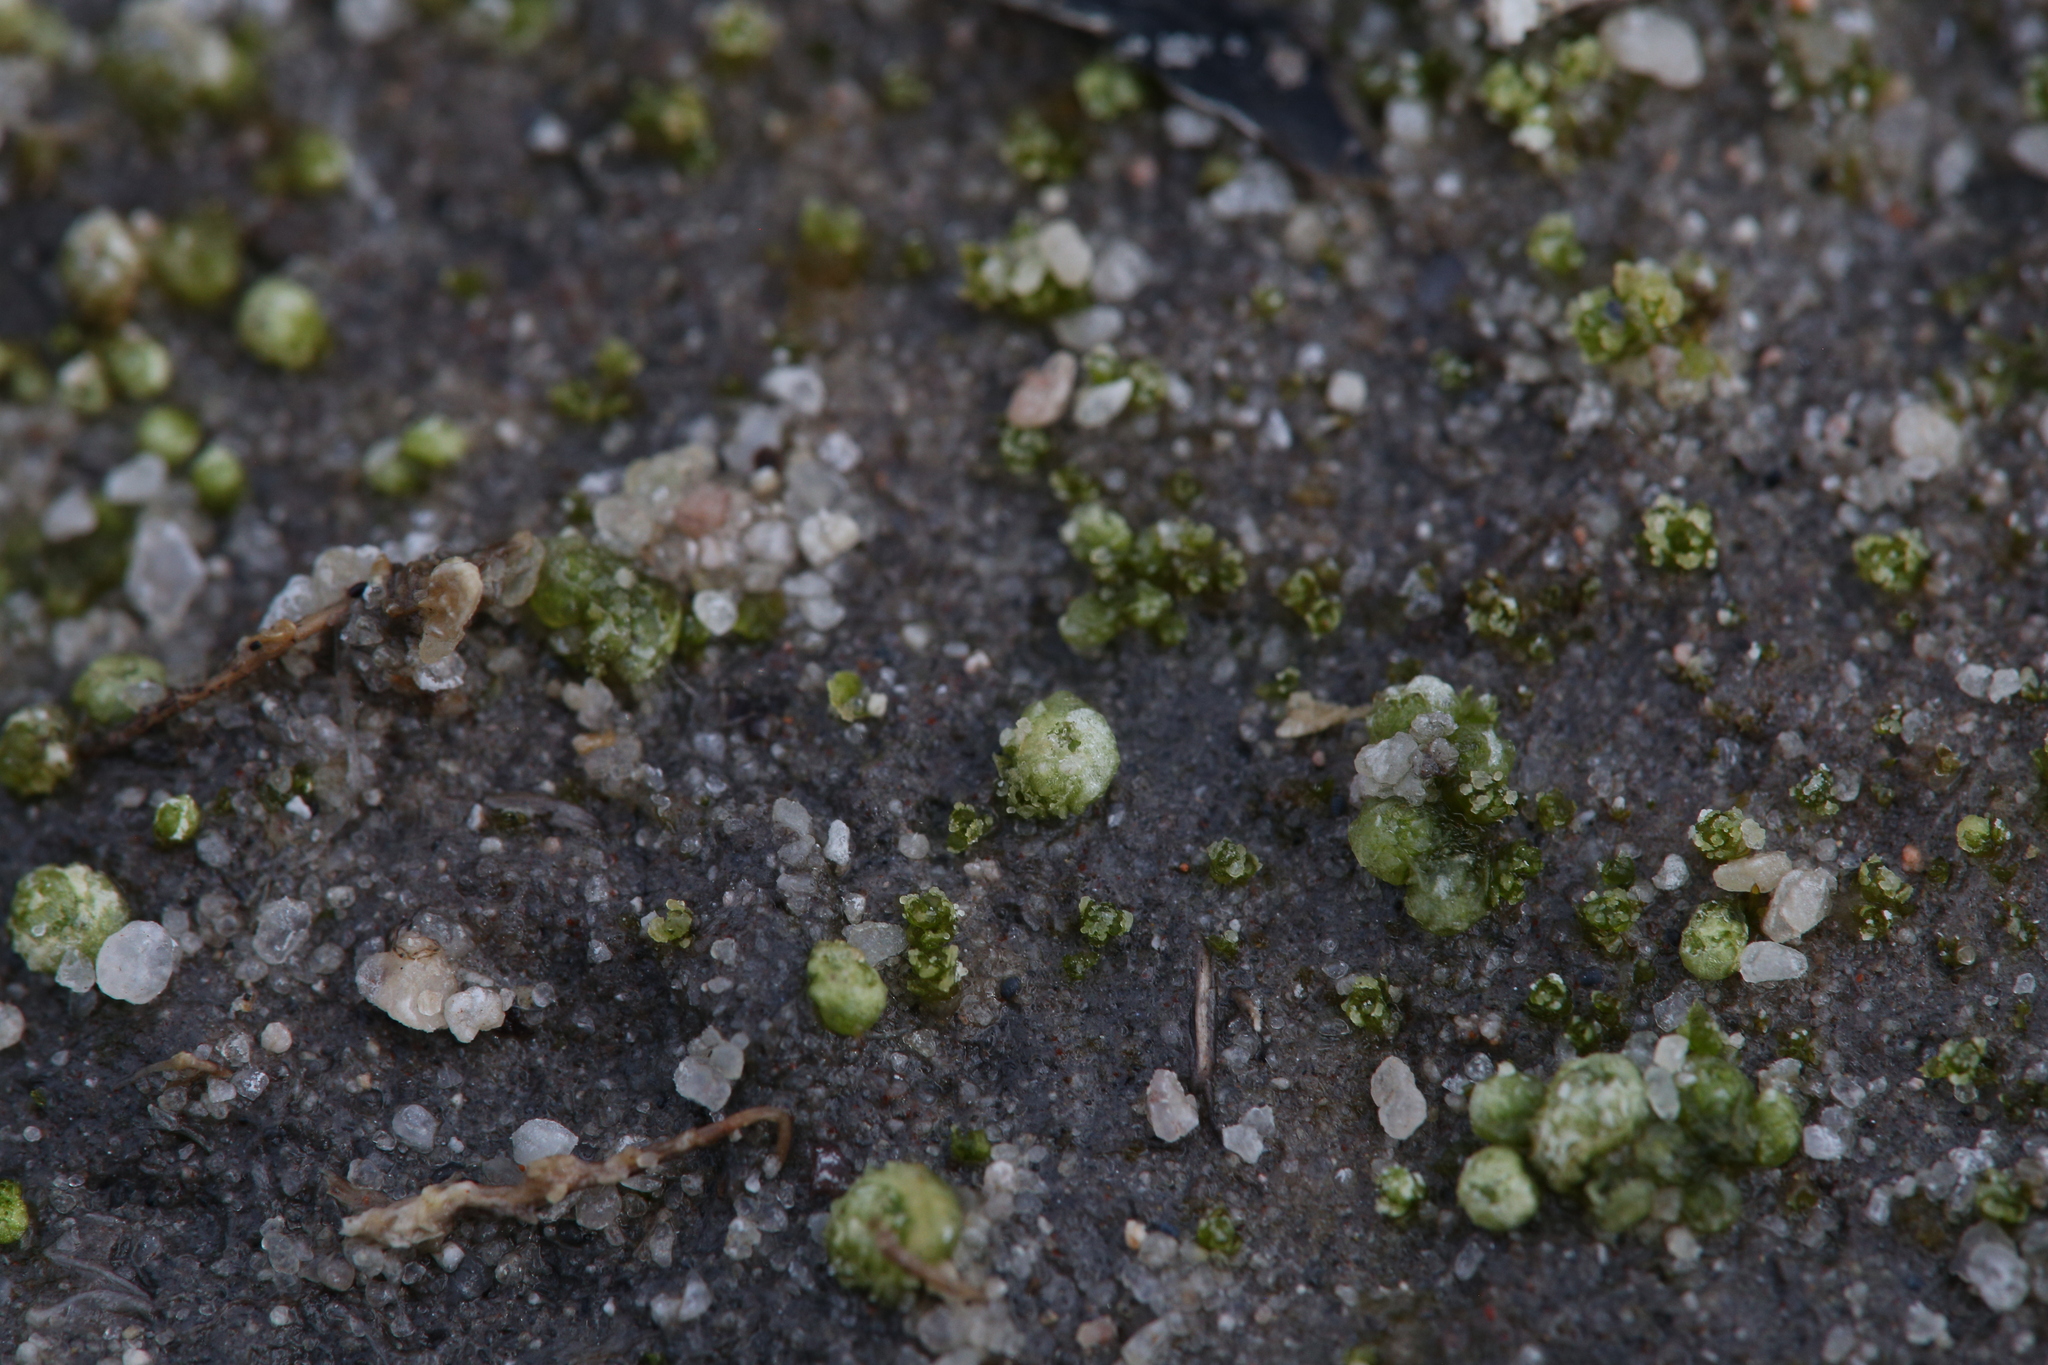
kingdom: Plantae
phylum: Marchantiophyta
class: Marchantiopsida
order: Sphaerocarpales
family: Monocarpaceae
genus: Monocarpus
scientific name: Monocarpus sphaerocarpus
